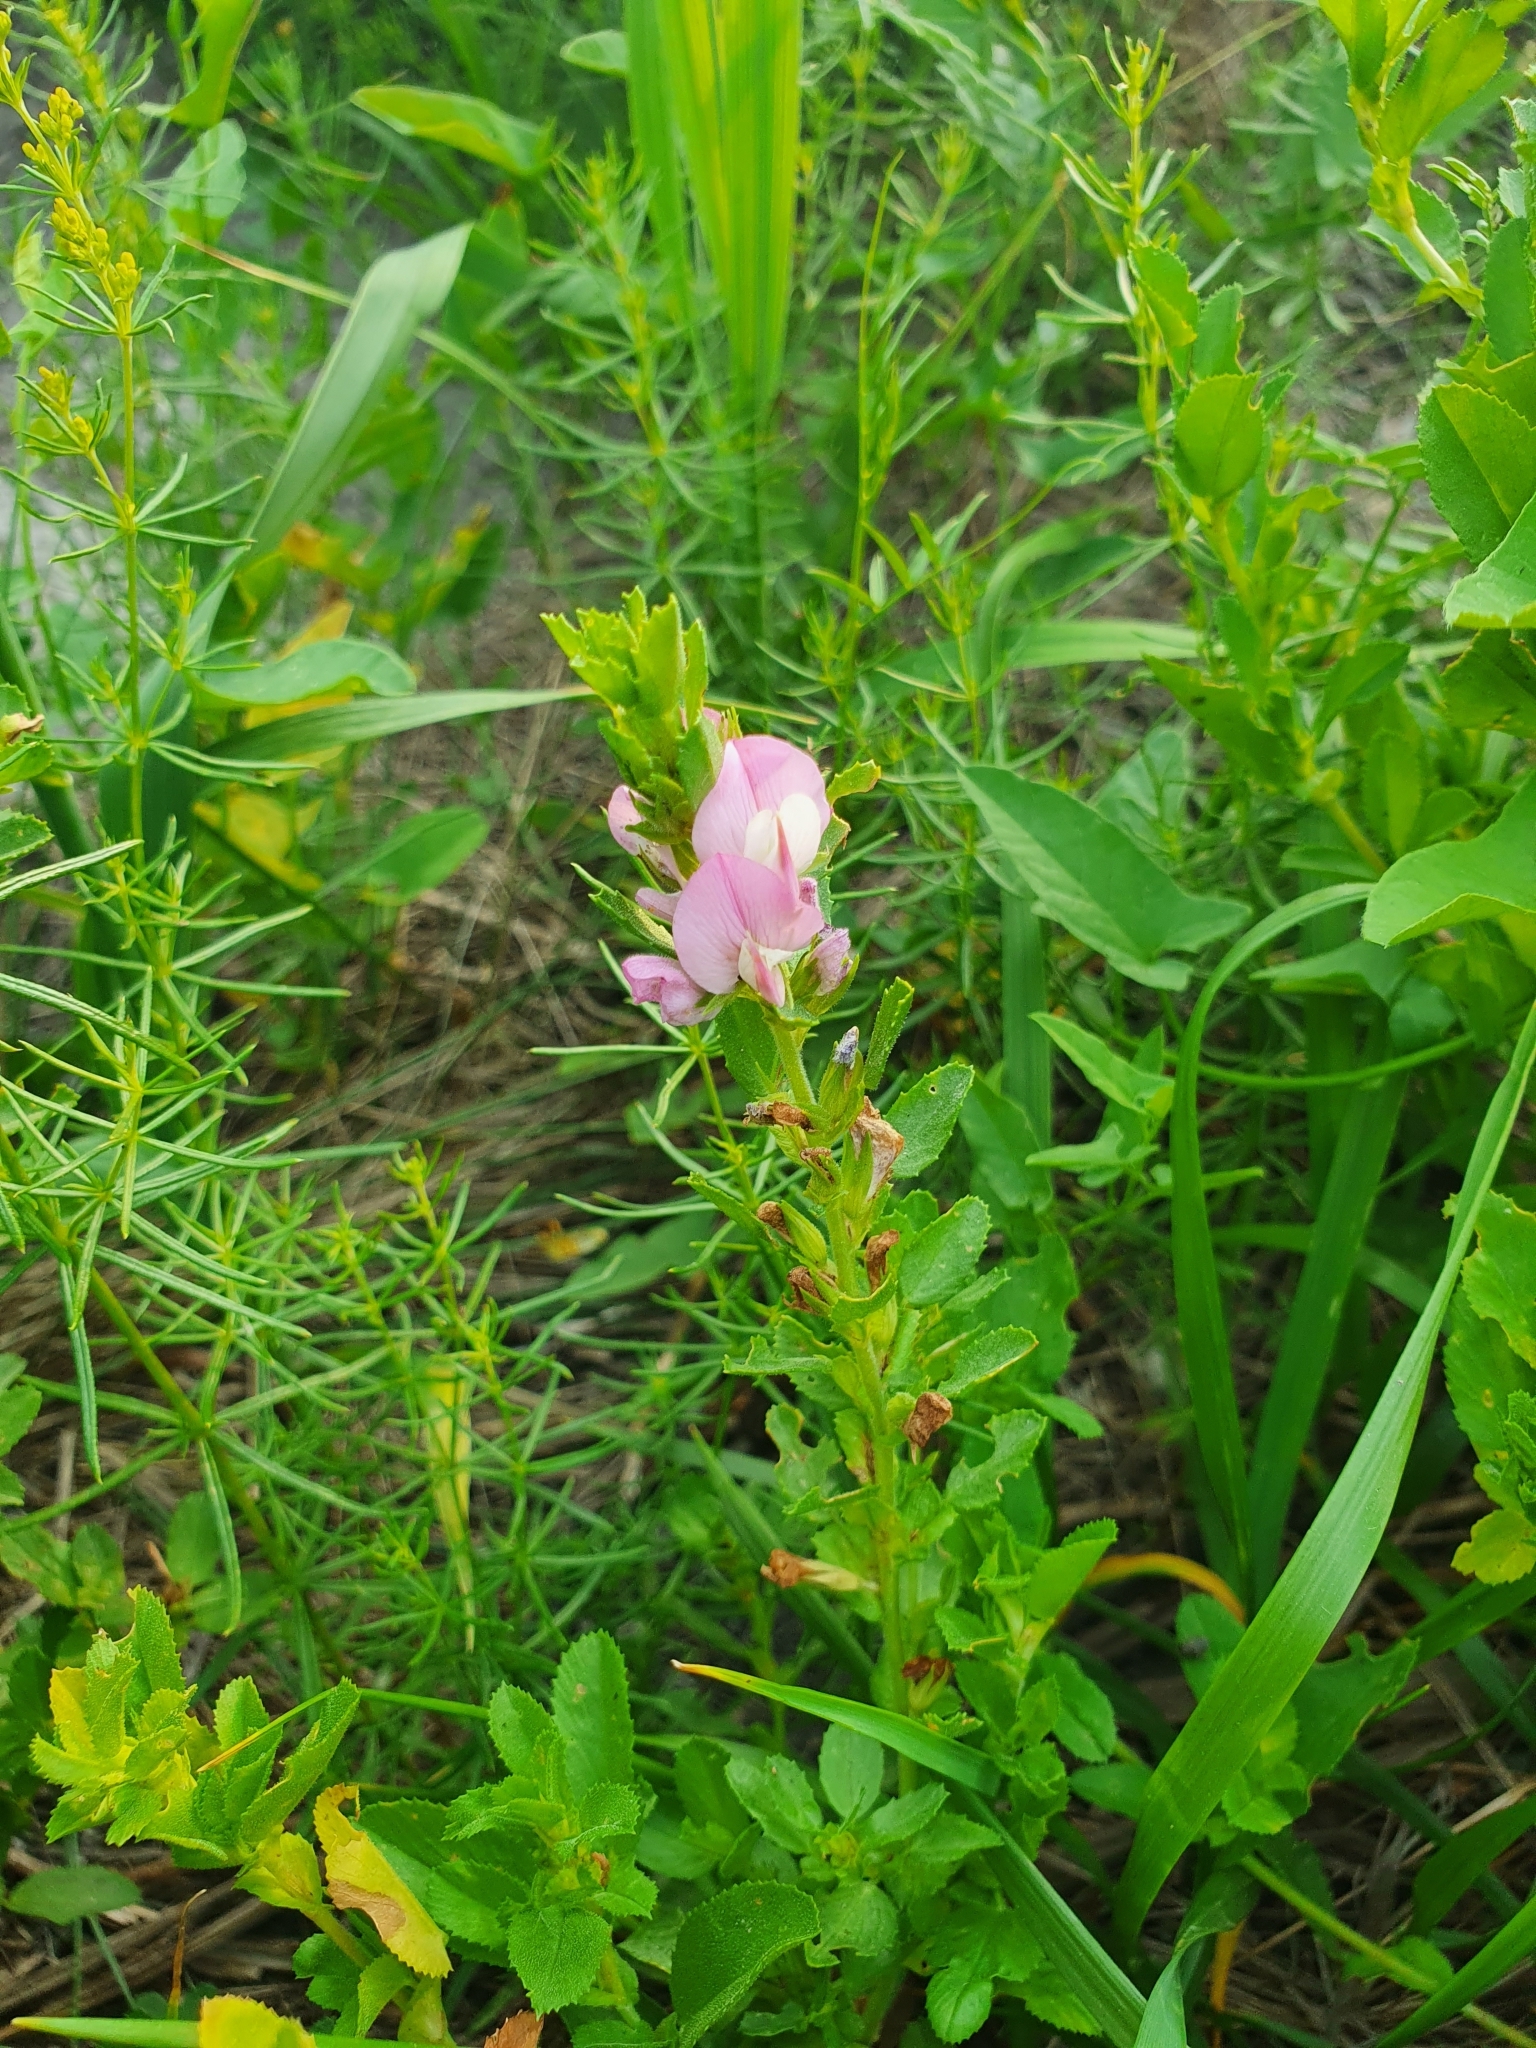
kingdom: Plantae
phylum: Tracheophyta
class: Magnoliopsida
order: Fabales
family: Fabaceae
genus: Ononis
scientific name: Ononis arvensis
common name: Field restharrow
